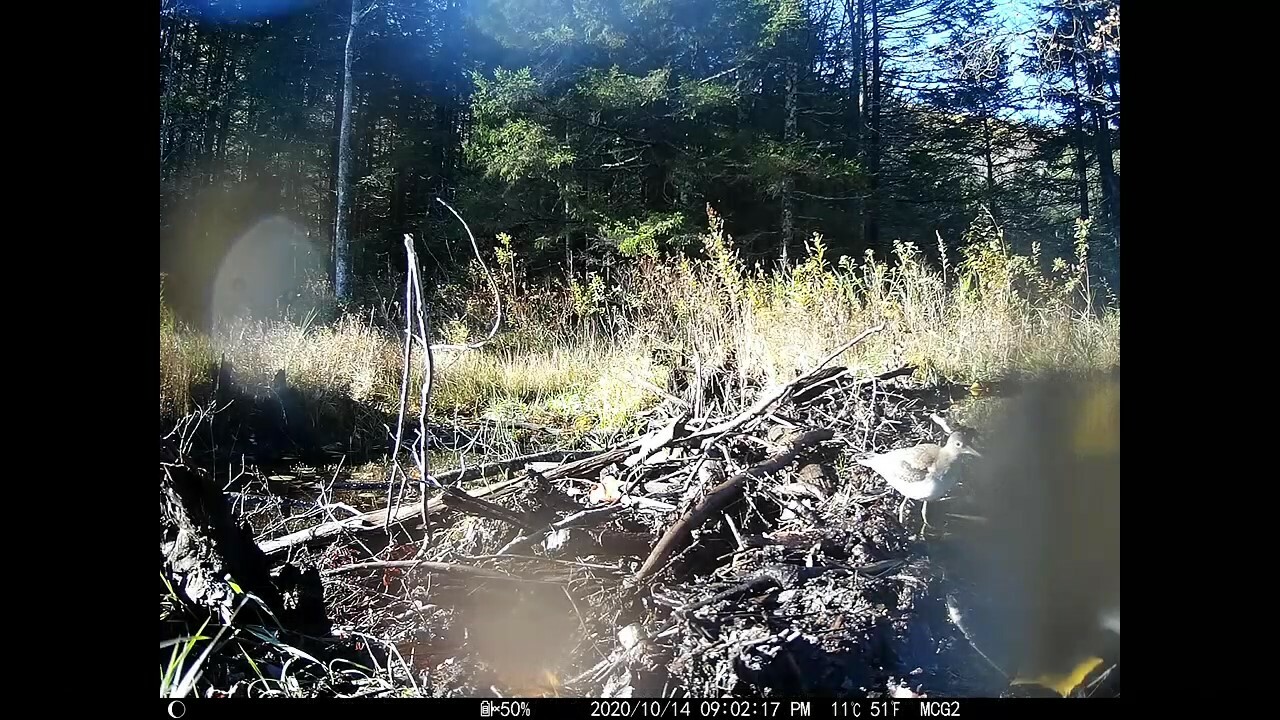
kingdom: Animalia
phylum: Chordata
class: Aves
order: Charadriiformes
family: Scolopacidae
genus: Tringa
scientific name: Tringa solitaria
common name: Solitary sandpiper
